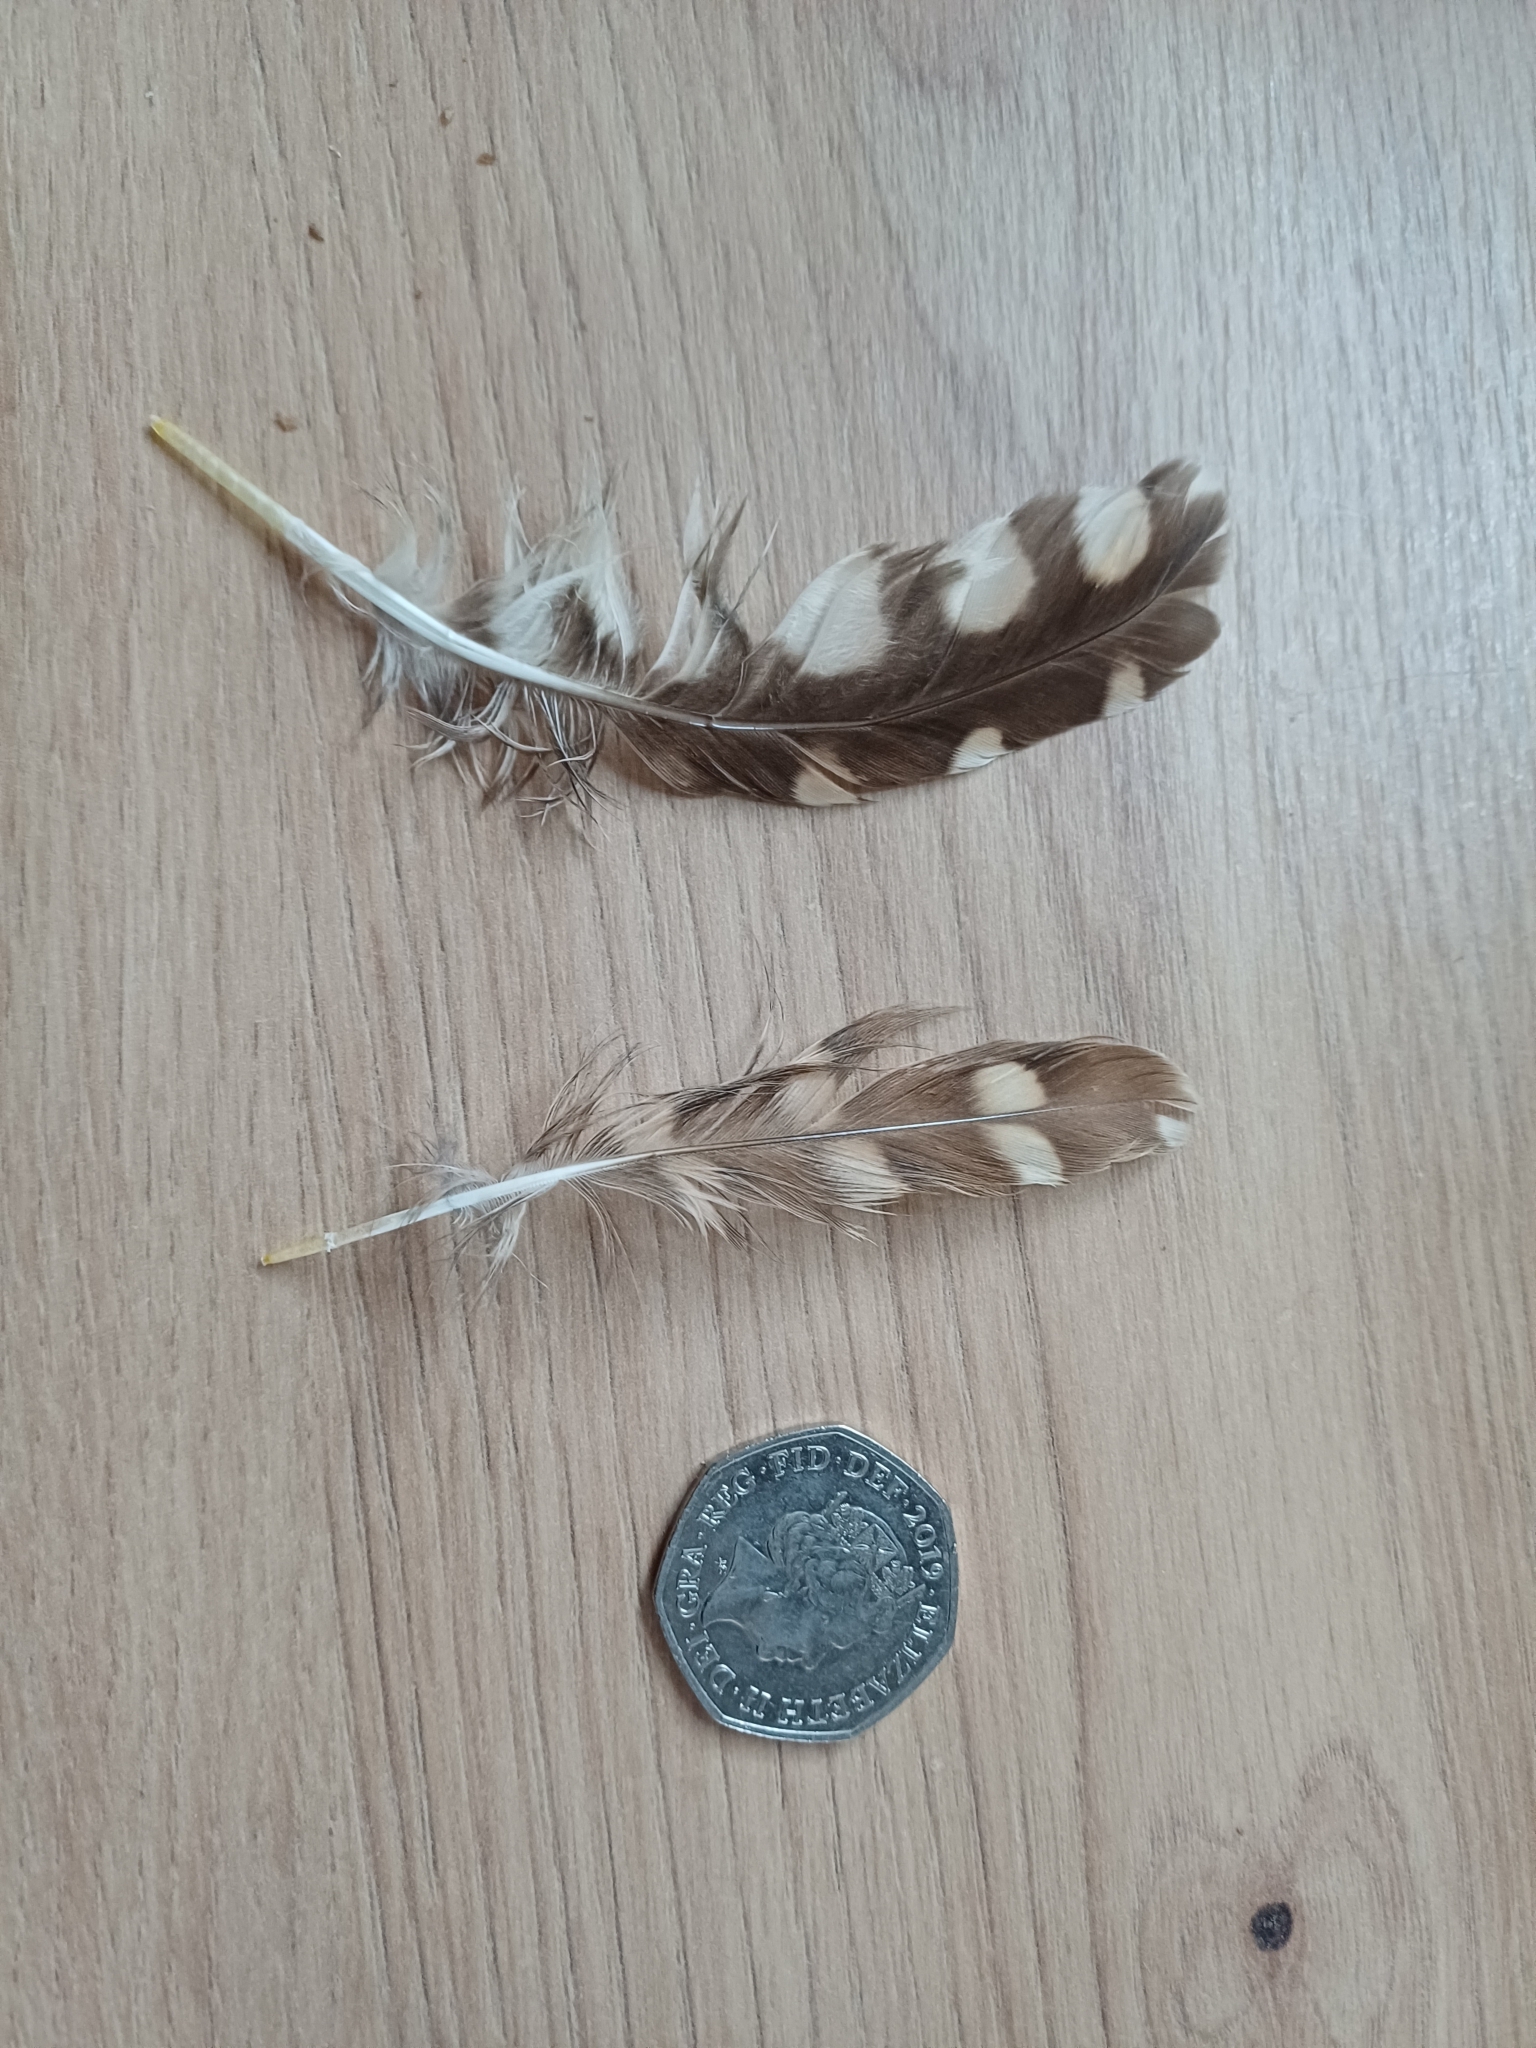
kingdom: Animalia
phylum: Chordata
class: Aves
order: Strigiformes
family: Strigidae
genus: Athene
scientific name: Athene noctua
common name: Little owl
